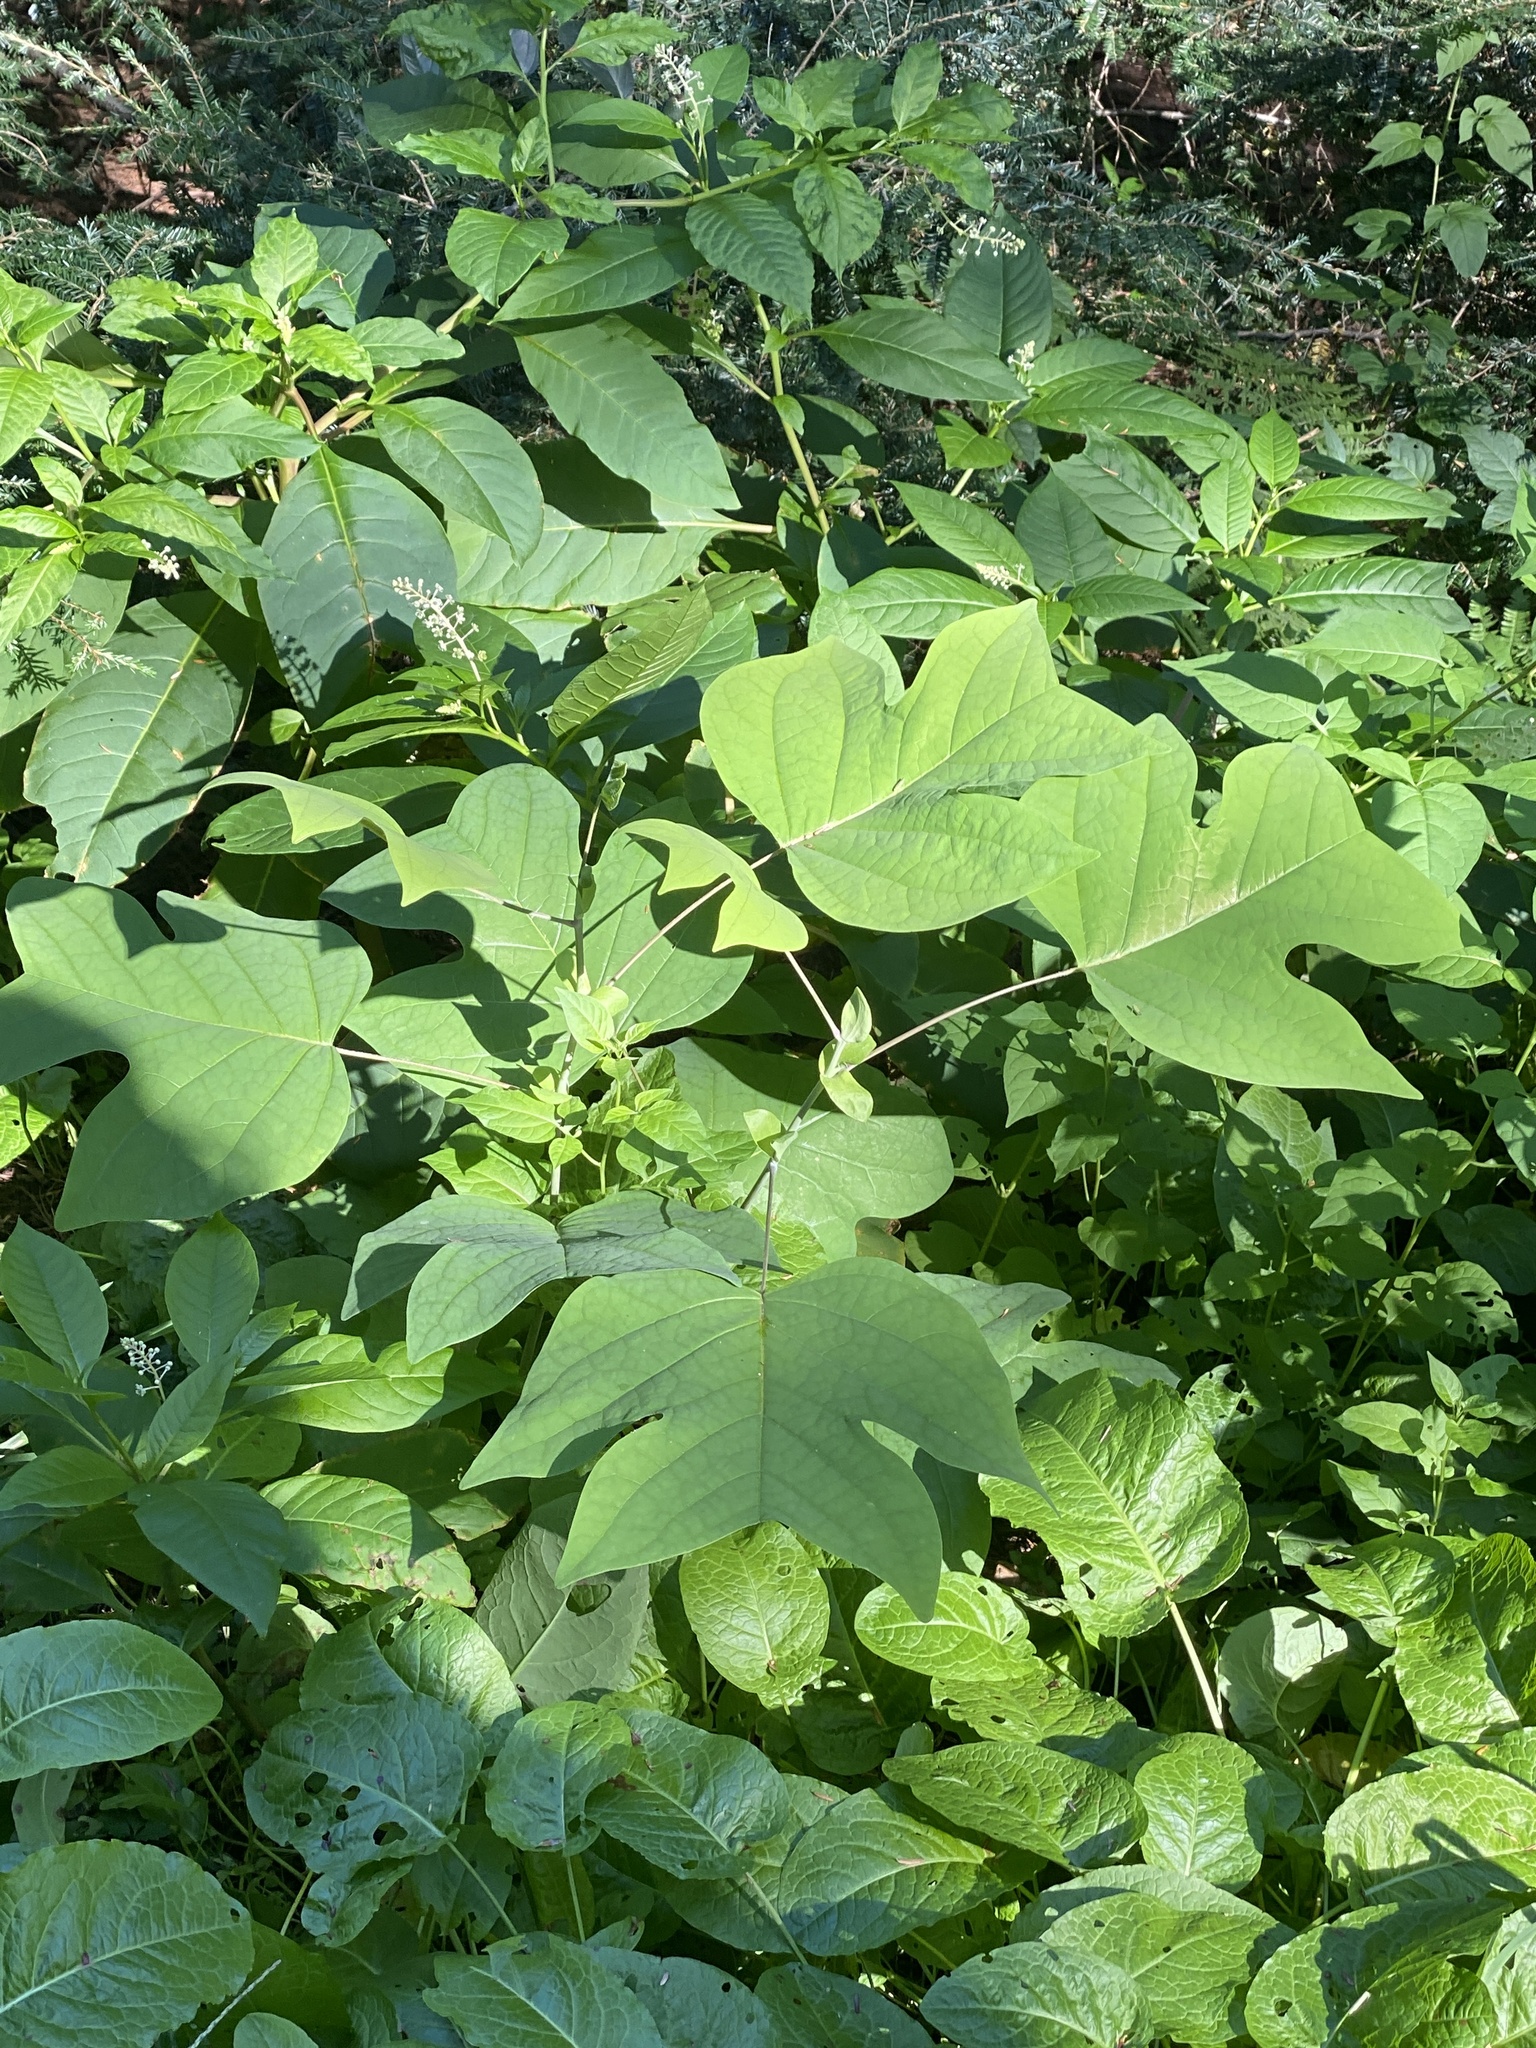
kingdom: Plantae
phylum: Tracheophyta
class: Magnoliopsida
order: Magnoliales
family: Magnoliaceae
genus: Liriodendron
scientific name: Liriodendron tulipifera
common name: Tulip tree
